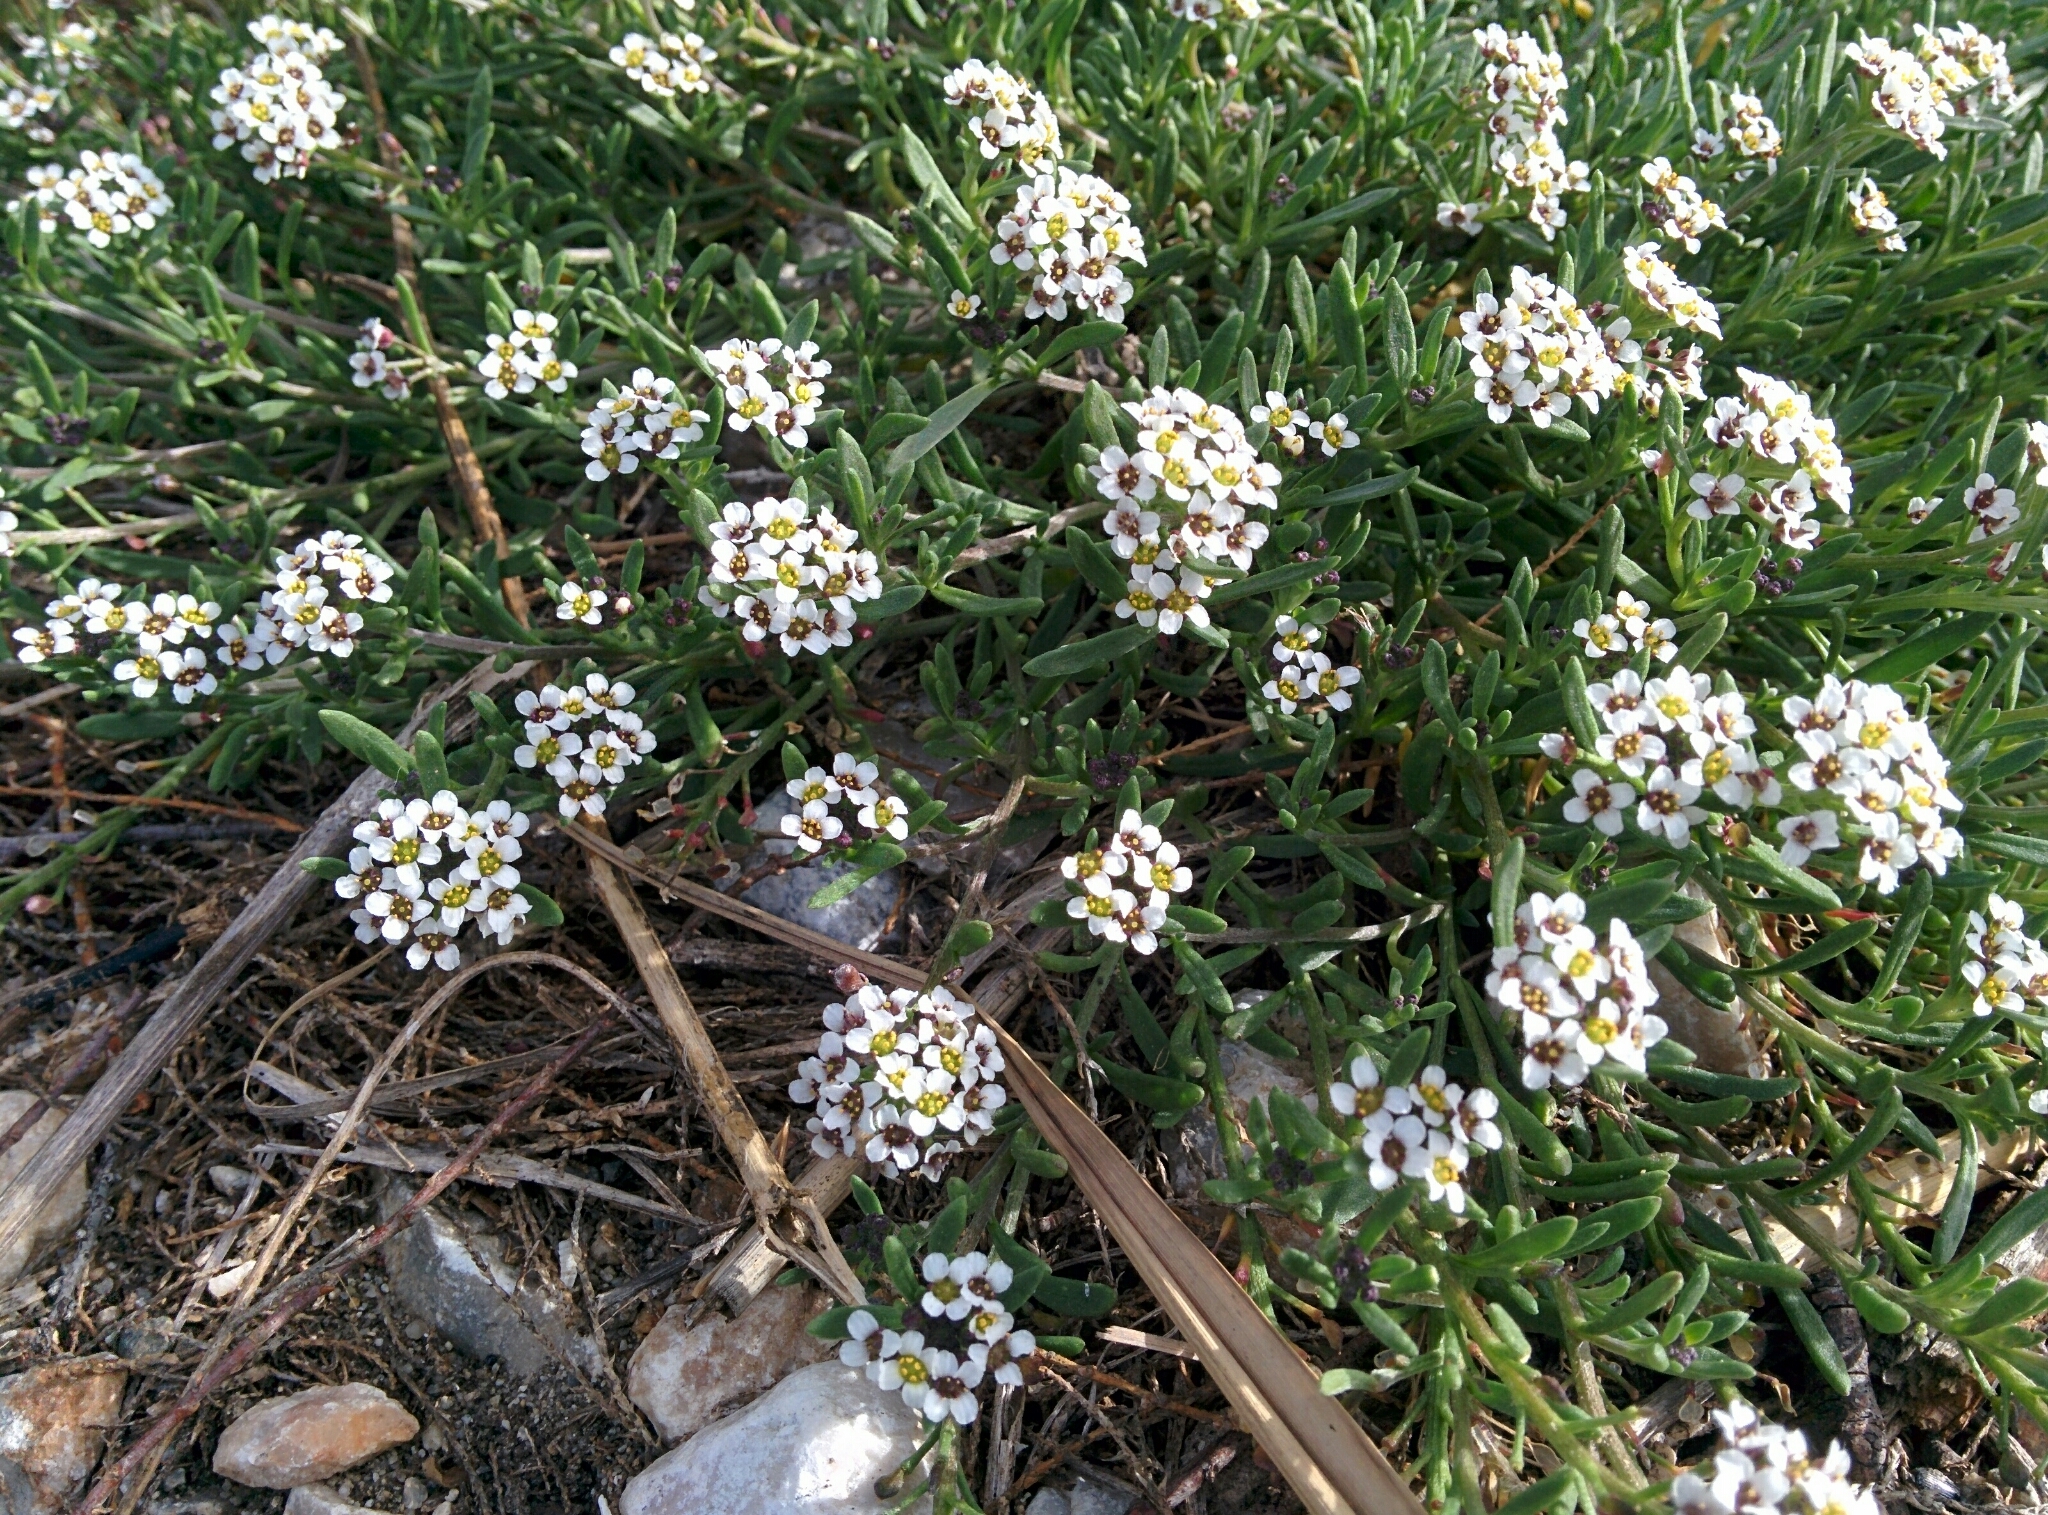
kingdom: Plantae
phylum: Tracheophyta
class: Magnoliopsida
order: Brassicales
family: Brassicaceae
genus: Lobularia
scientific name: Lobularia maritima
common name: Sweet alison
